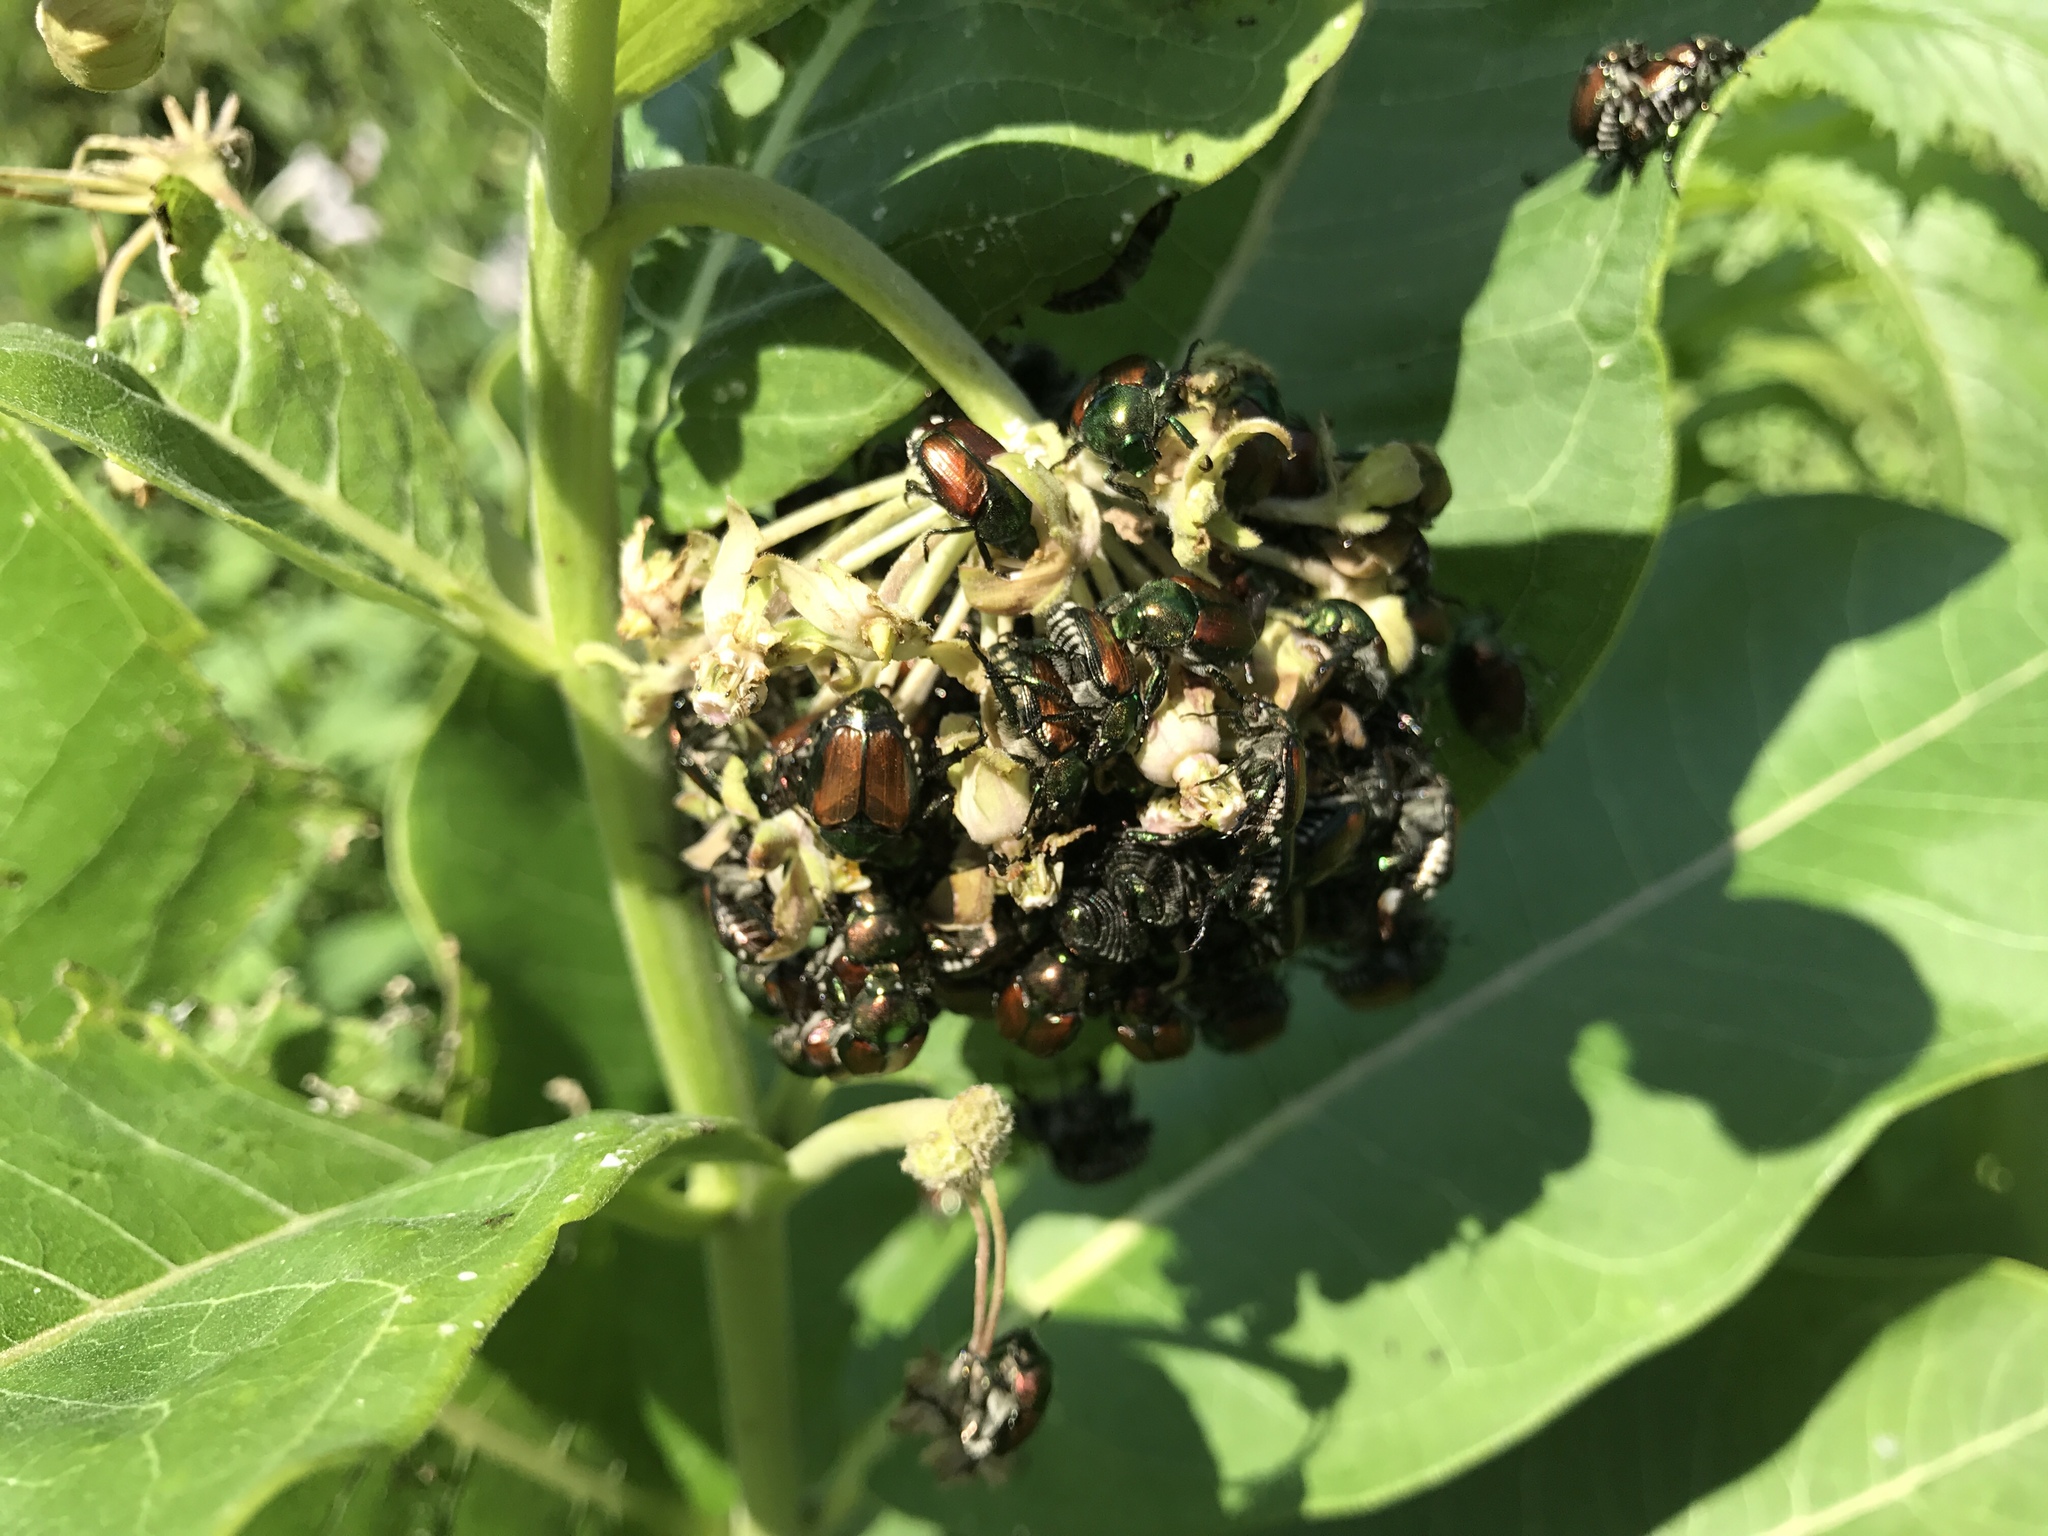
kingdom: Animalia
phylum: Arthropoda
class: Insecta
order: Coleoptera
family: Scarabaeidae
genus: Popillia
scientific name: Popillia japonica
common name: Japanese beetle
